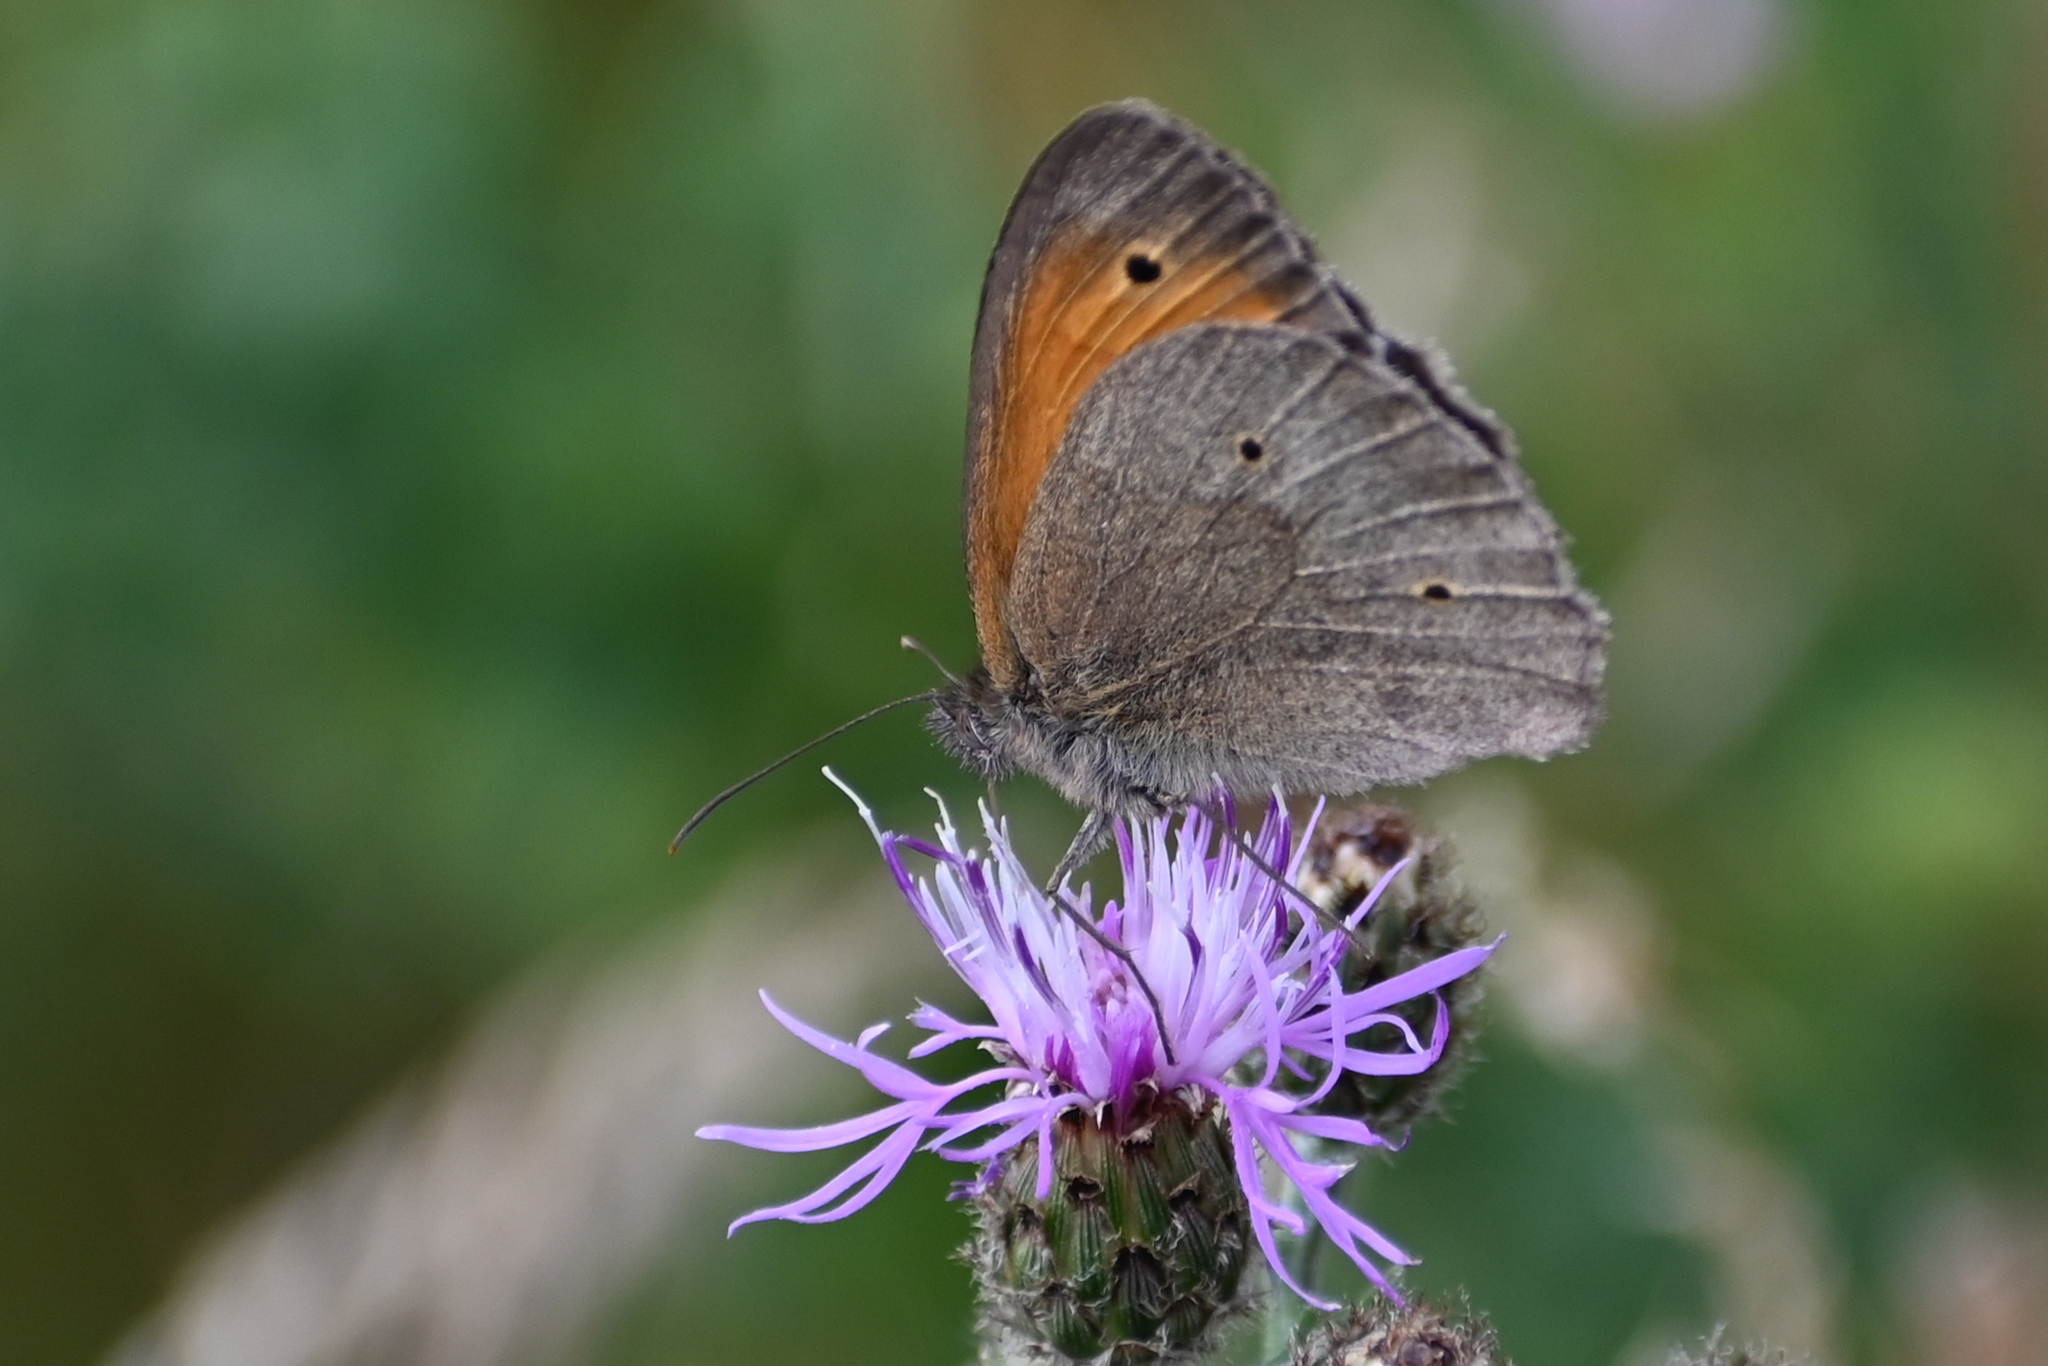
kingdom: Animalia
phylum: Arthropoda
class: Insecta
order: Lepidoptera
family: Nymphalidae
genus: Maniola
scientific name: Maniola jurtina
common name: Meadow brown
